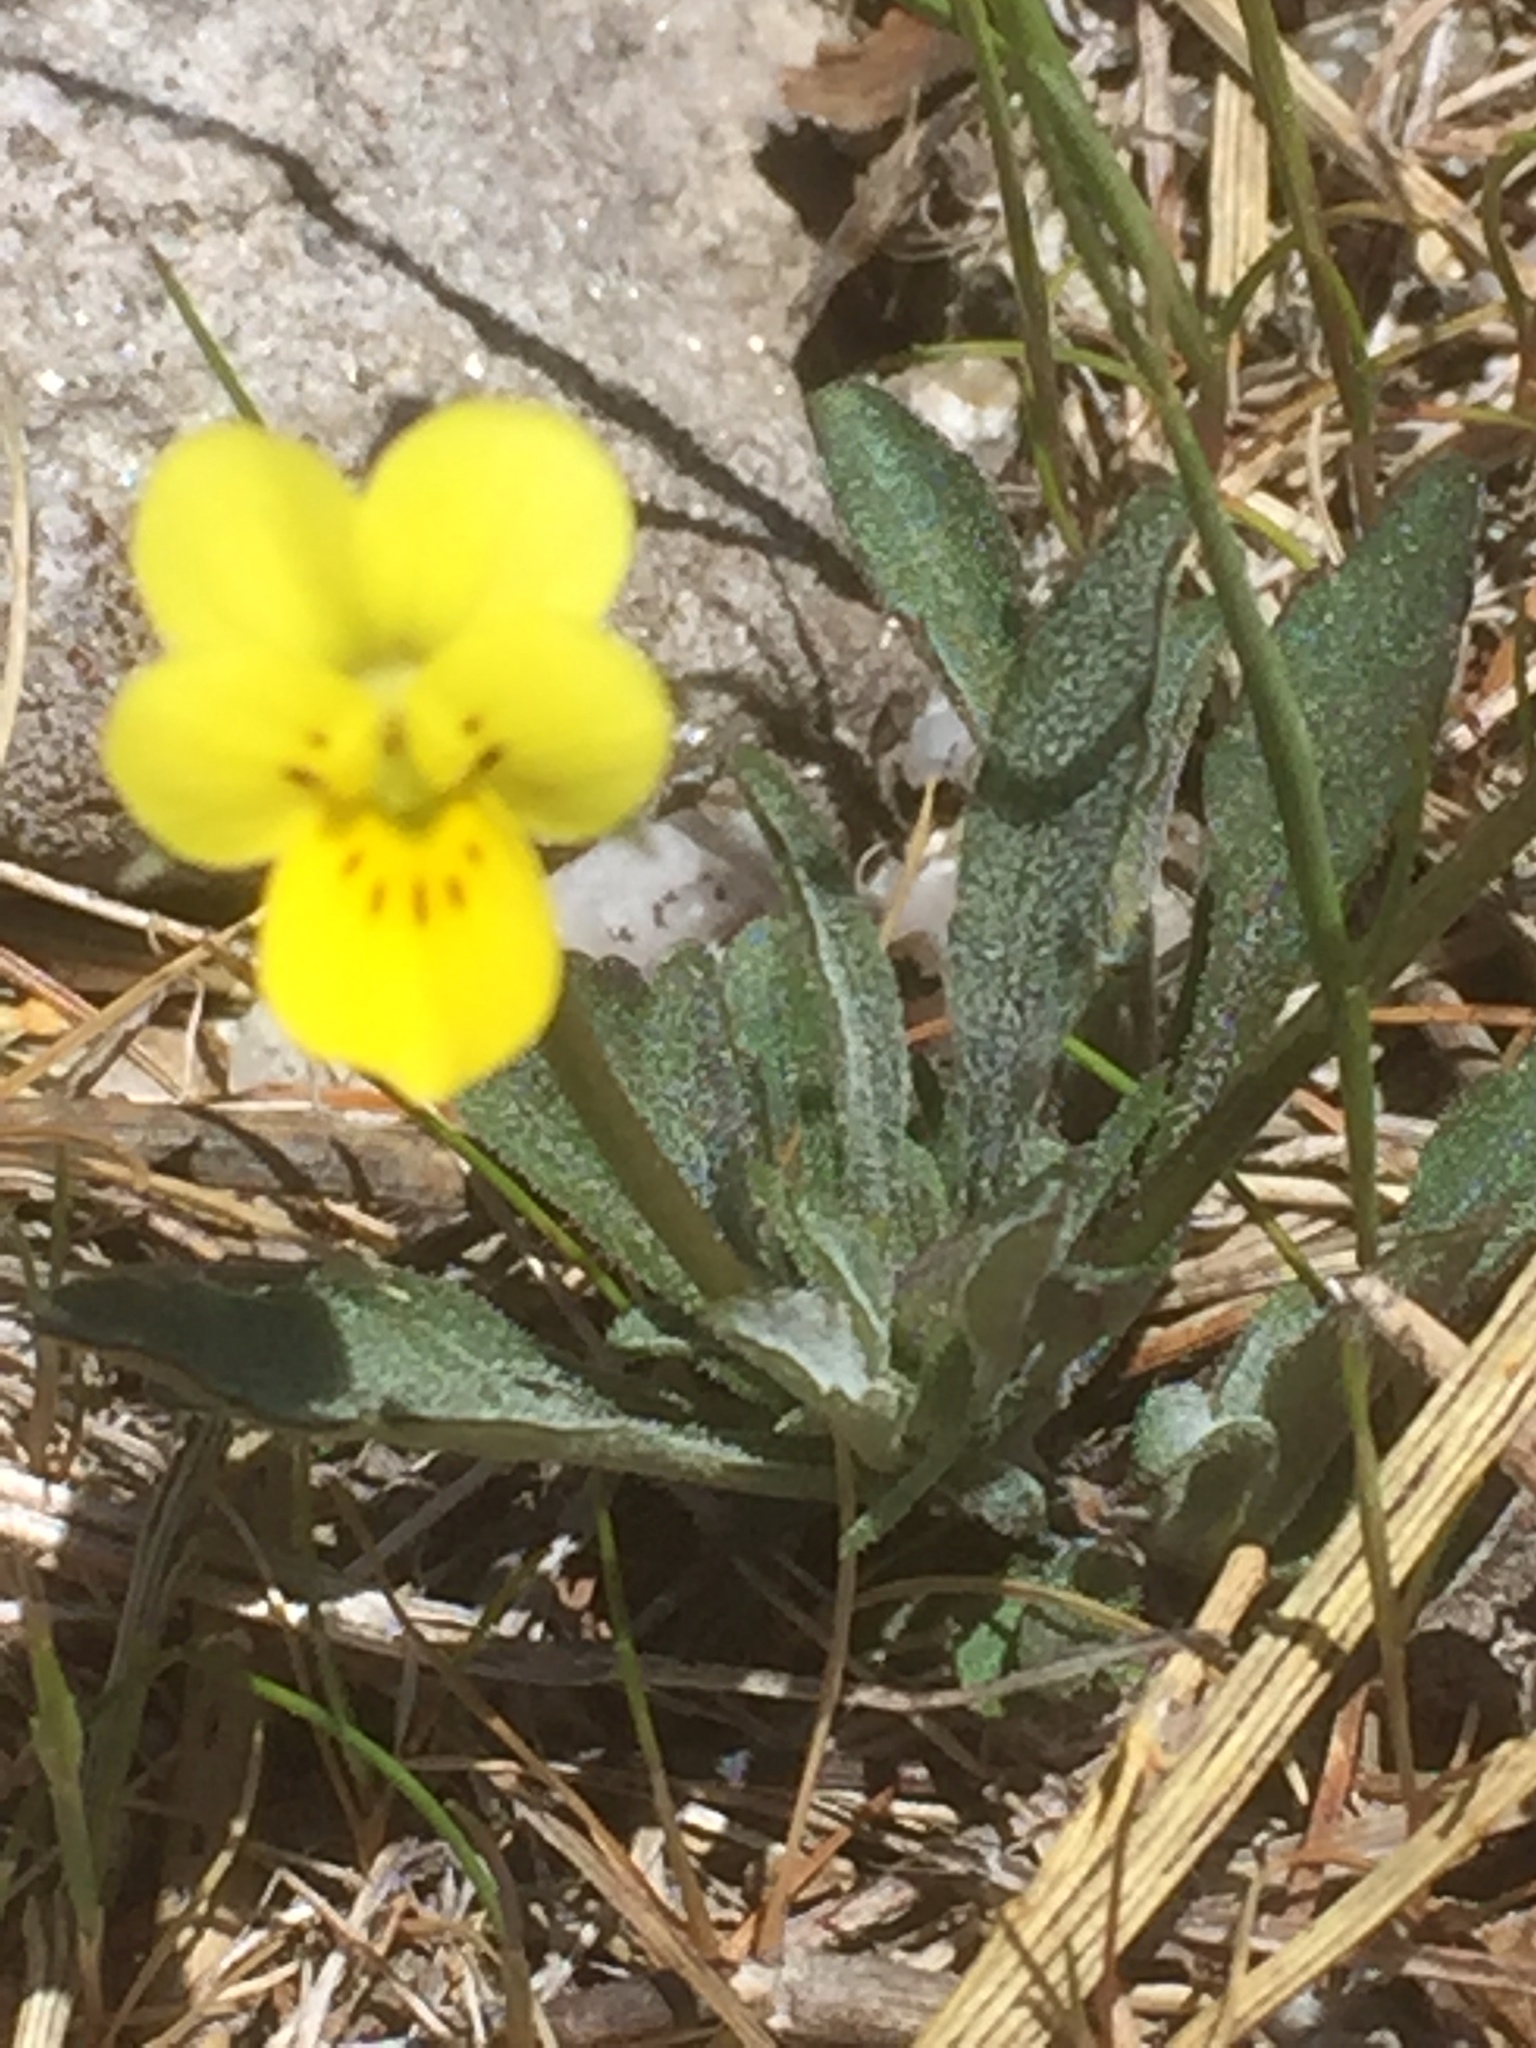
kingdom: Plantae
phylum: Tracheophyta
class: Magnoliopsida
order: Malpighiales
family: Violaceae
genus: Viola
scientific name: Viola langeana
